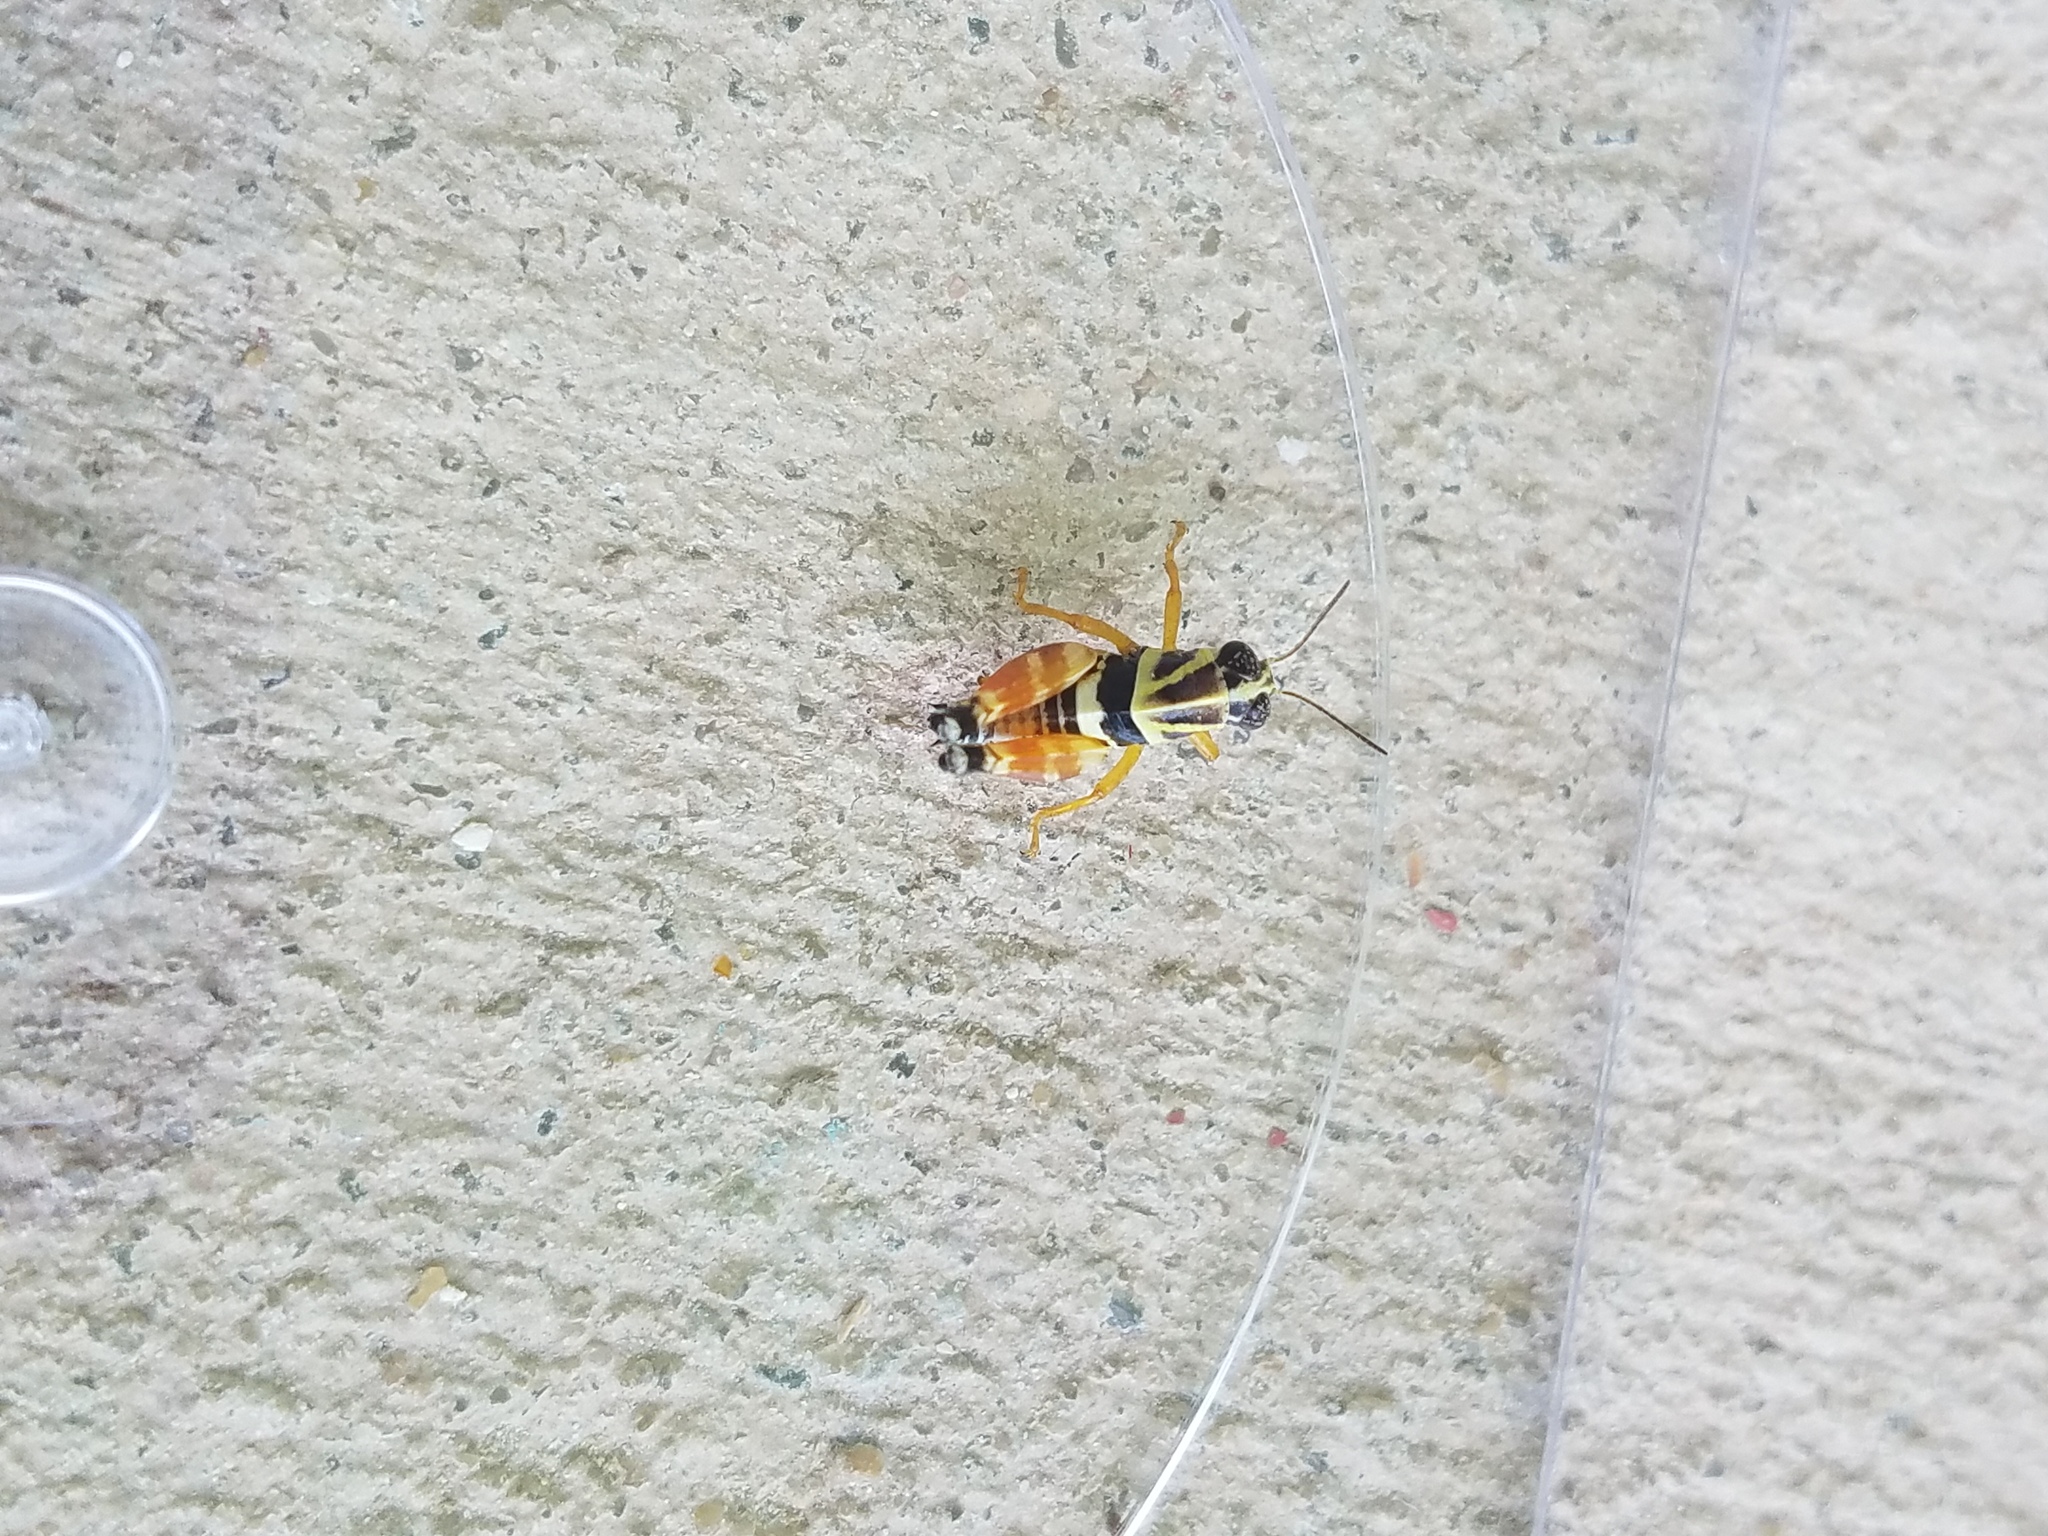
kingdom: Animalia
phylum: Arthropoda
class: Insecta
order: Orthoptera
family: Acrididae
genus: Aidemona
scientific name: Aidemona azteca
